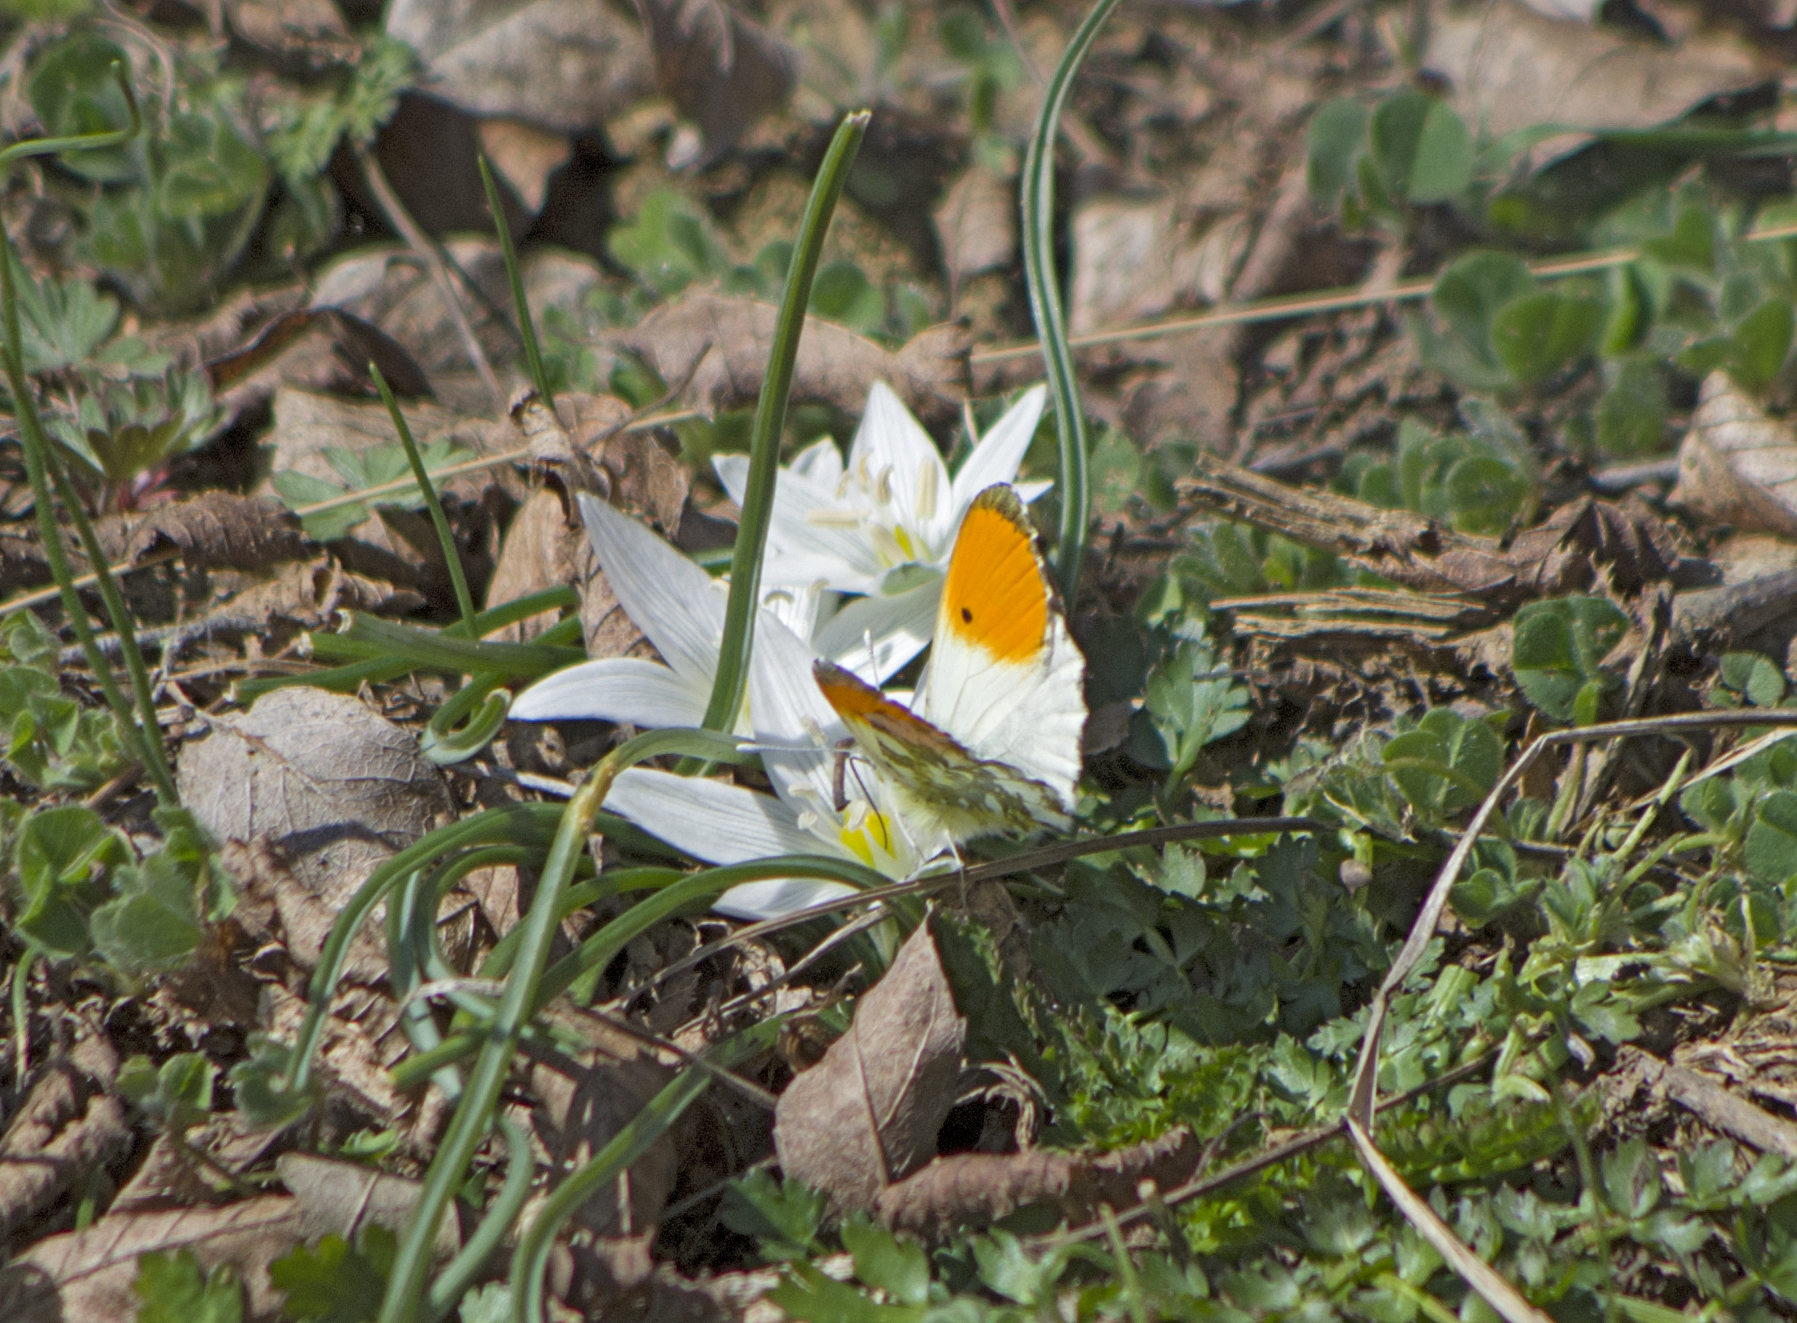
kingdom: Animalia
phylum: Arthropoda
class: Insecta
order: Lepidoptera
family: Pieridae
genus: Anthocharis
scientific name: Anthocharis cardamines
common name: Orange-tip
